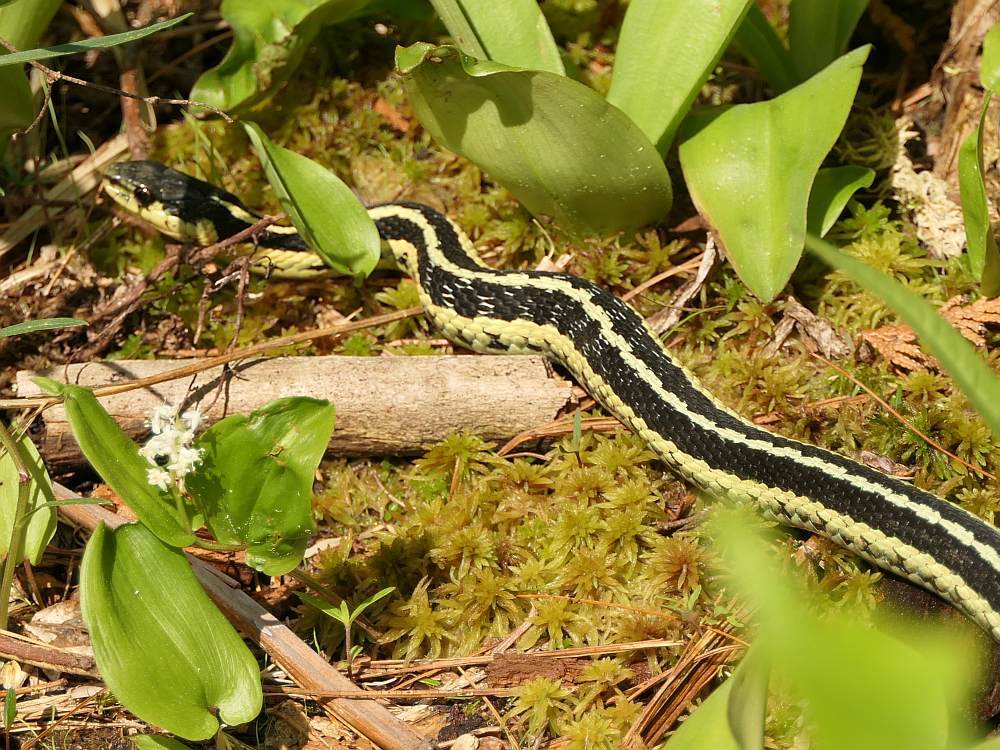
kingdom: Animalia
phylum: Chordata
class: Squamata
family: Colubridae
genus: Thamnophis
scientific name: Thamnophis sirtalis
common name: Common garter snake
